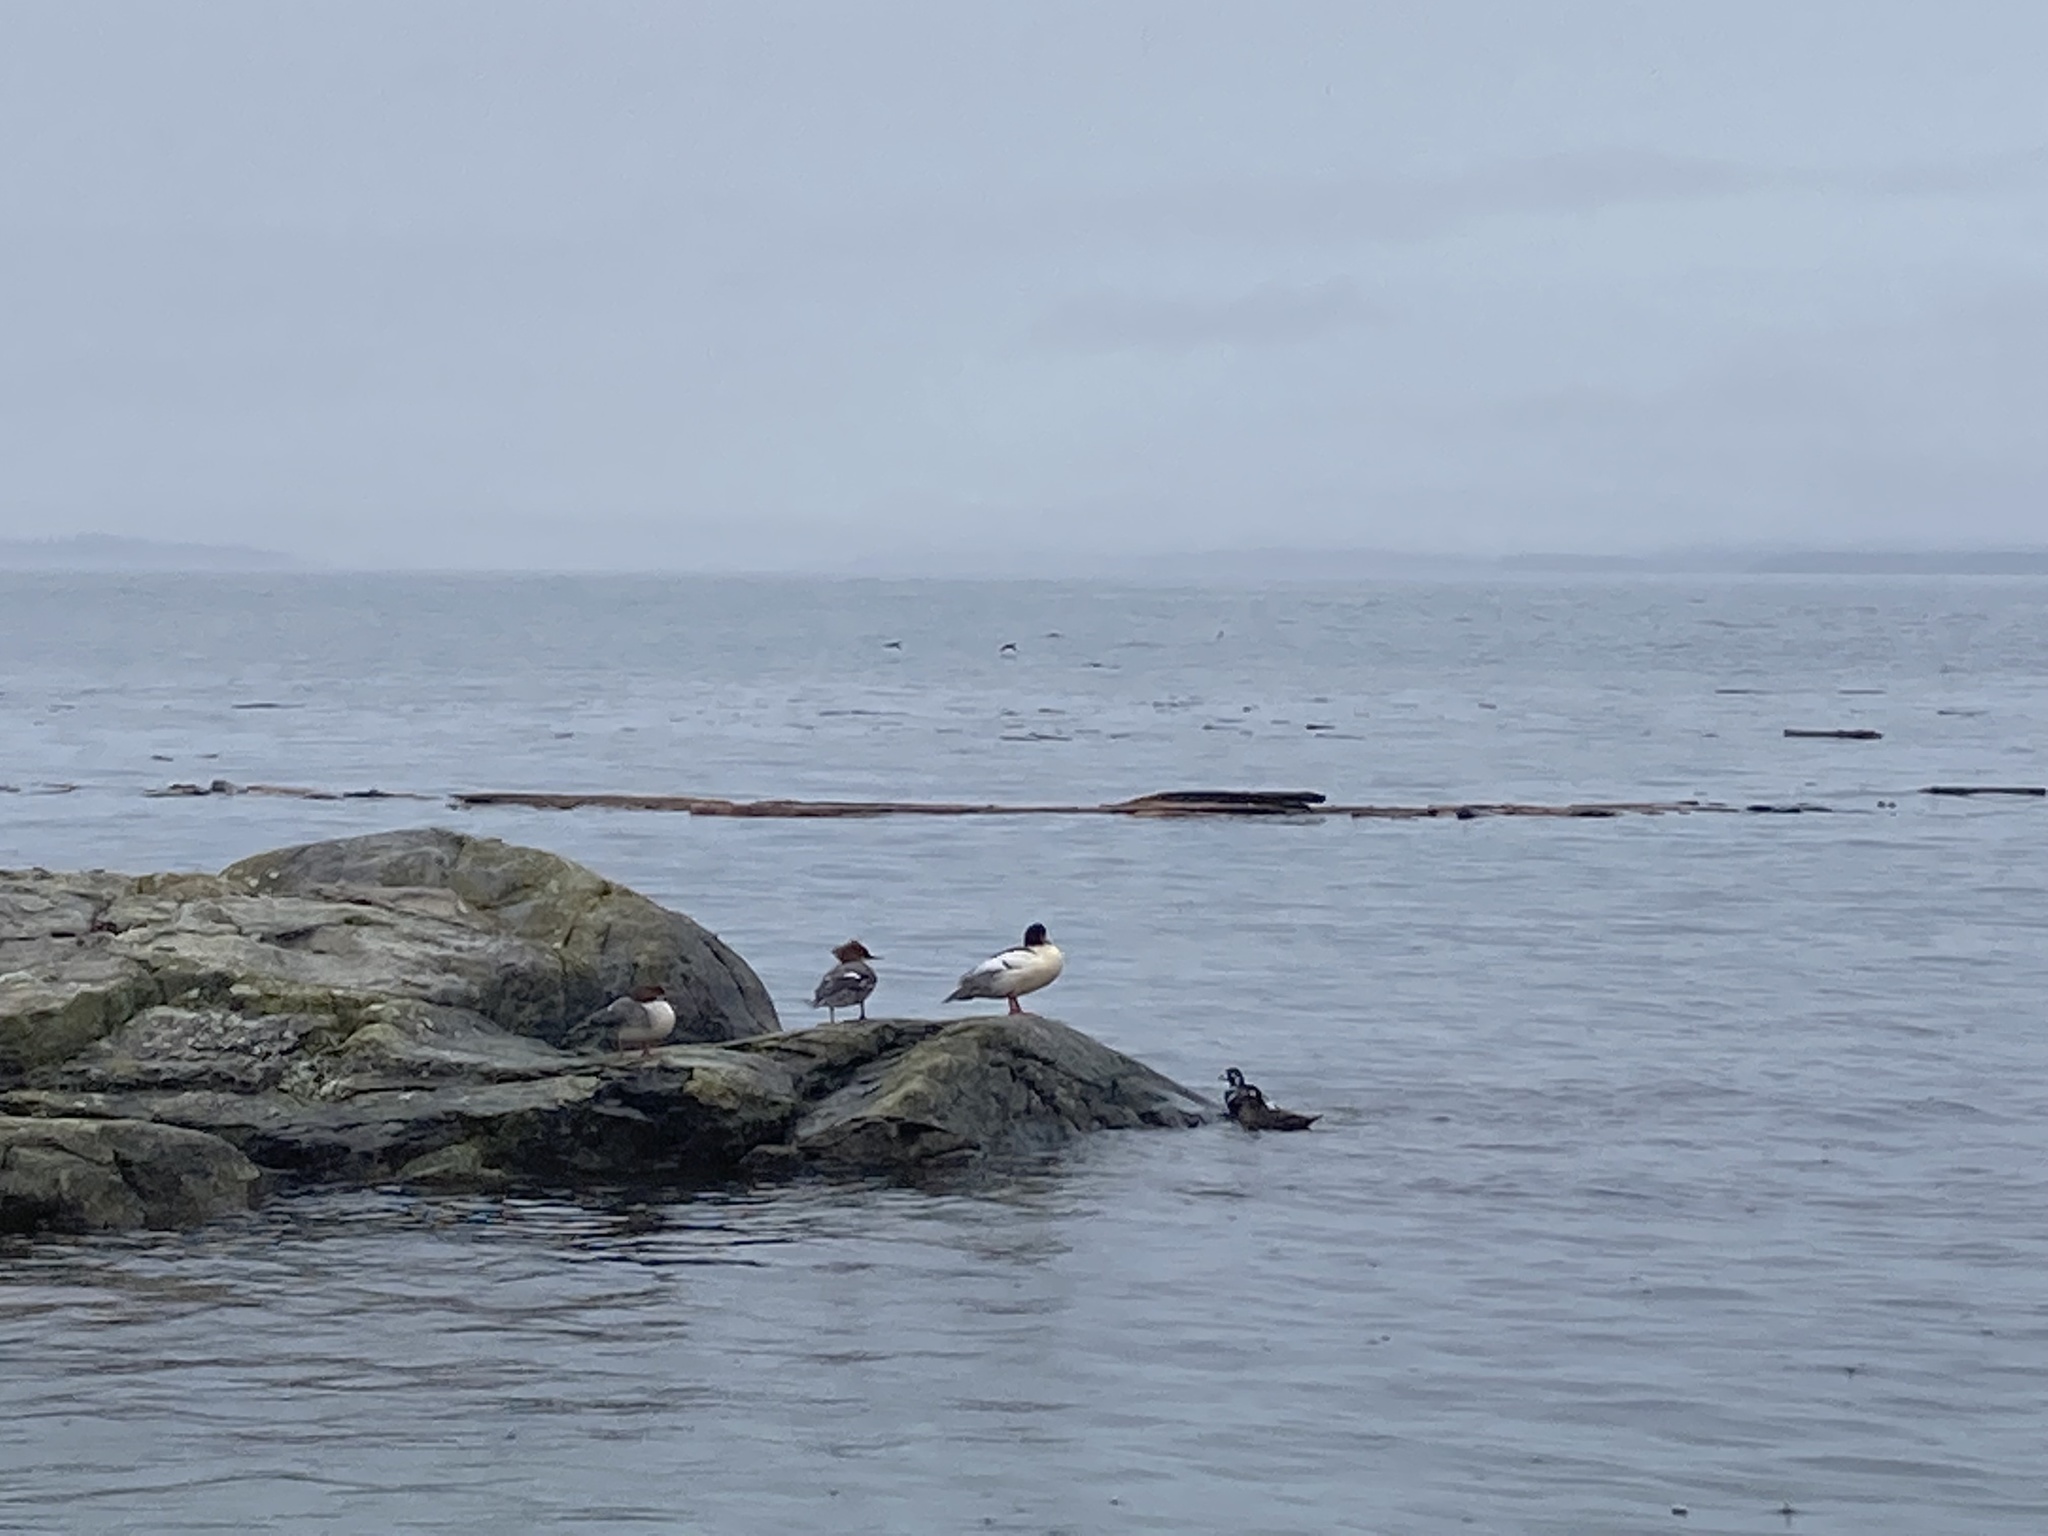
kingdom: Animalia
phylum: Chordata
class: Aves
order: Anseriformes
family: Anatidae
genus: Mergus
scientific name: Mergus merganser
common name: Common merganser
